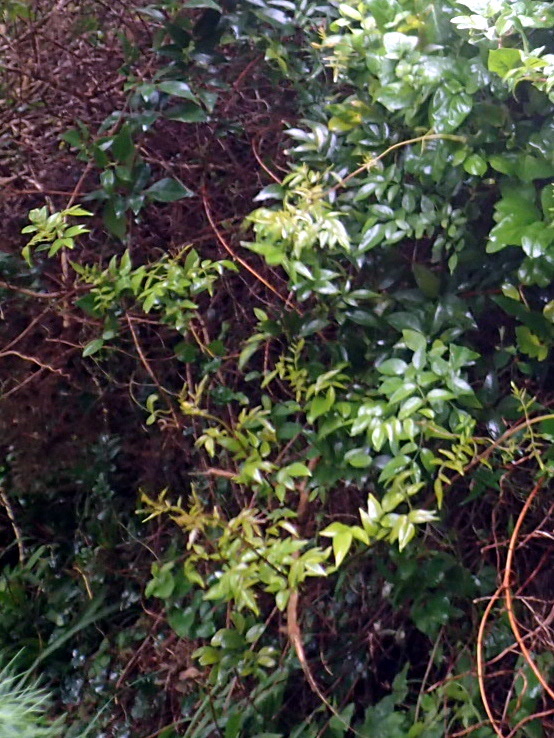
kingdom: Plantae
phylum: Tracheophyta
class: Magnoliopsida
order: Lamiales
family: Bignoniaceae
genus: Pandorea
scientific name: Pandorea pandorana
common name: Wonga-wonga-vine
